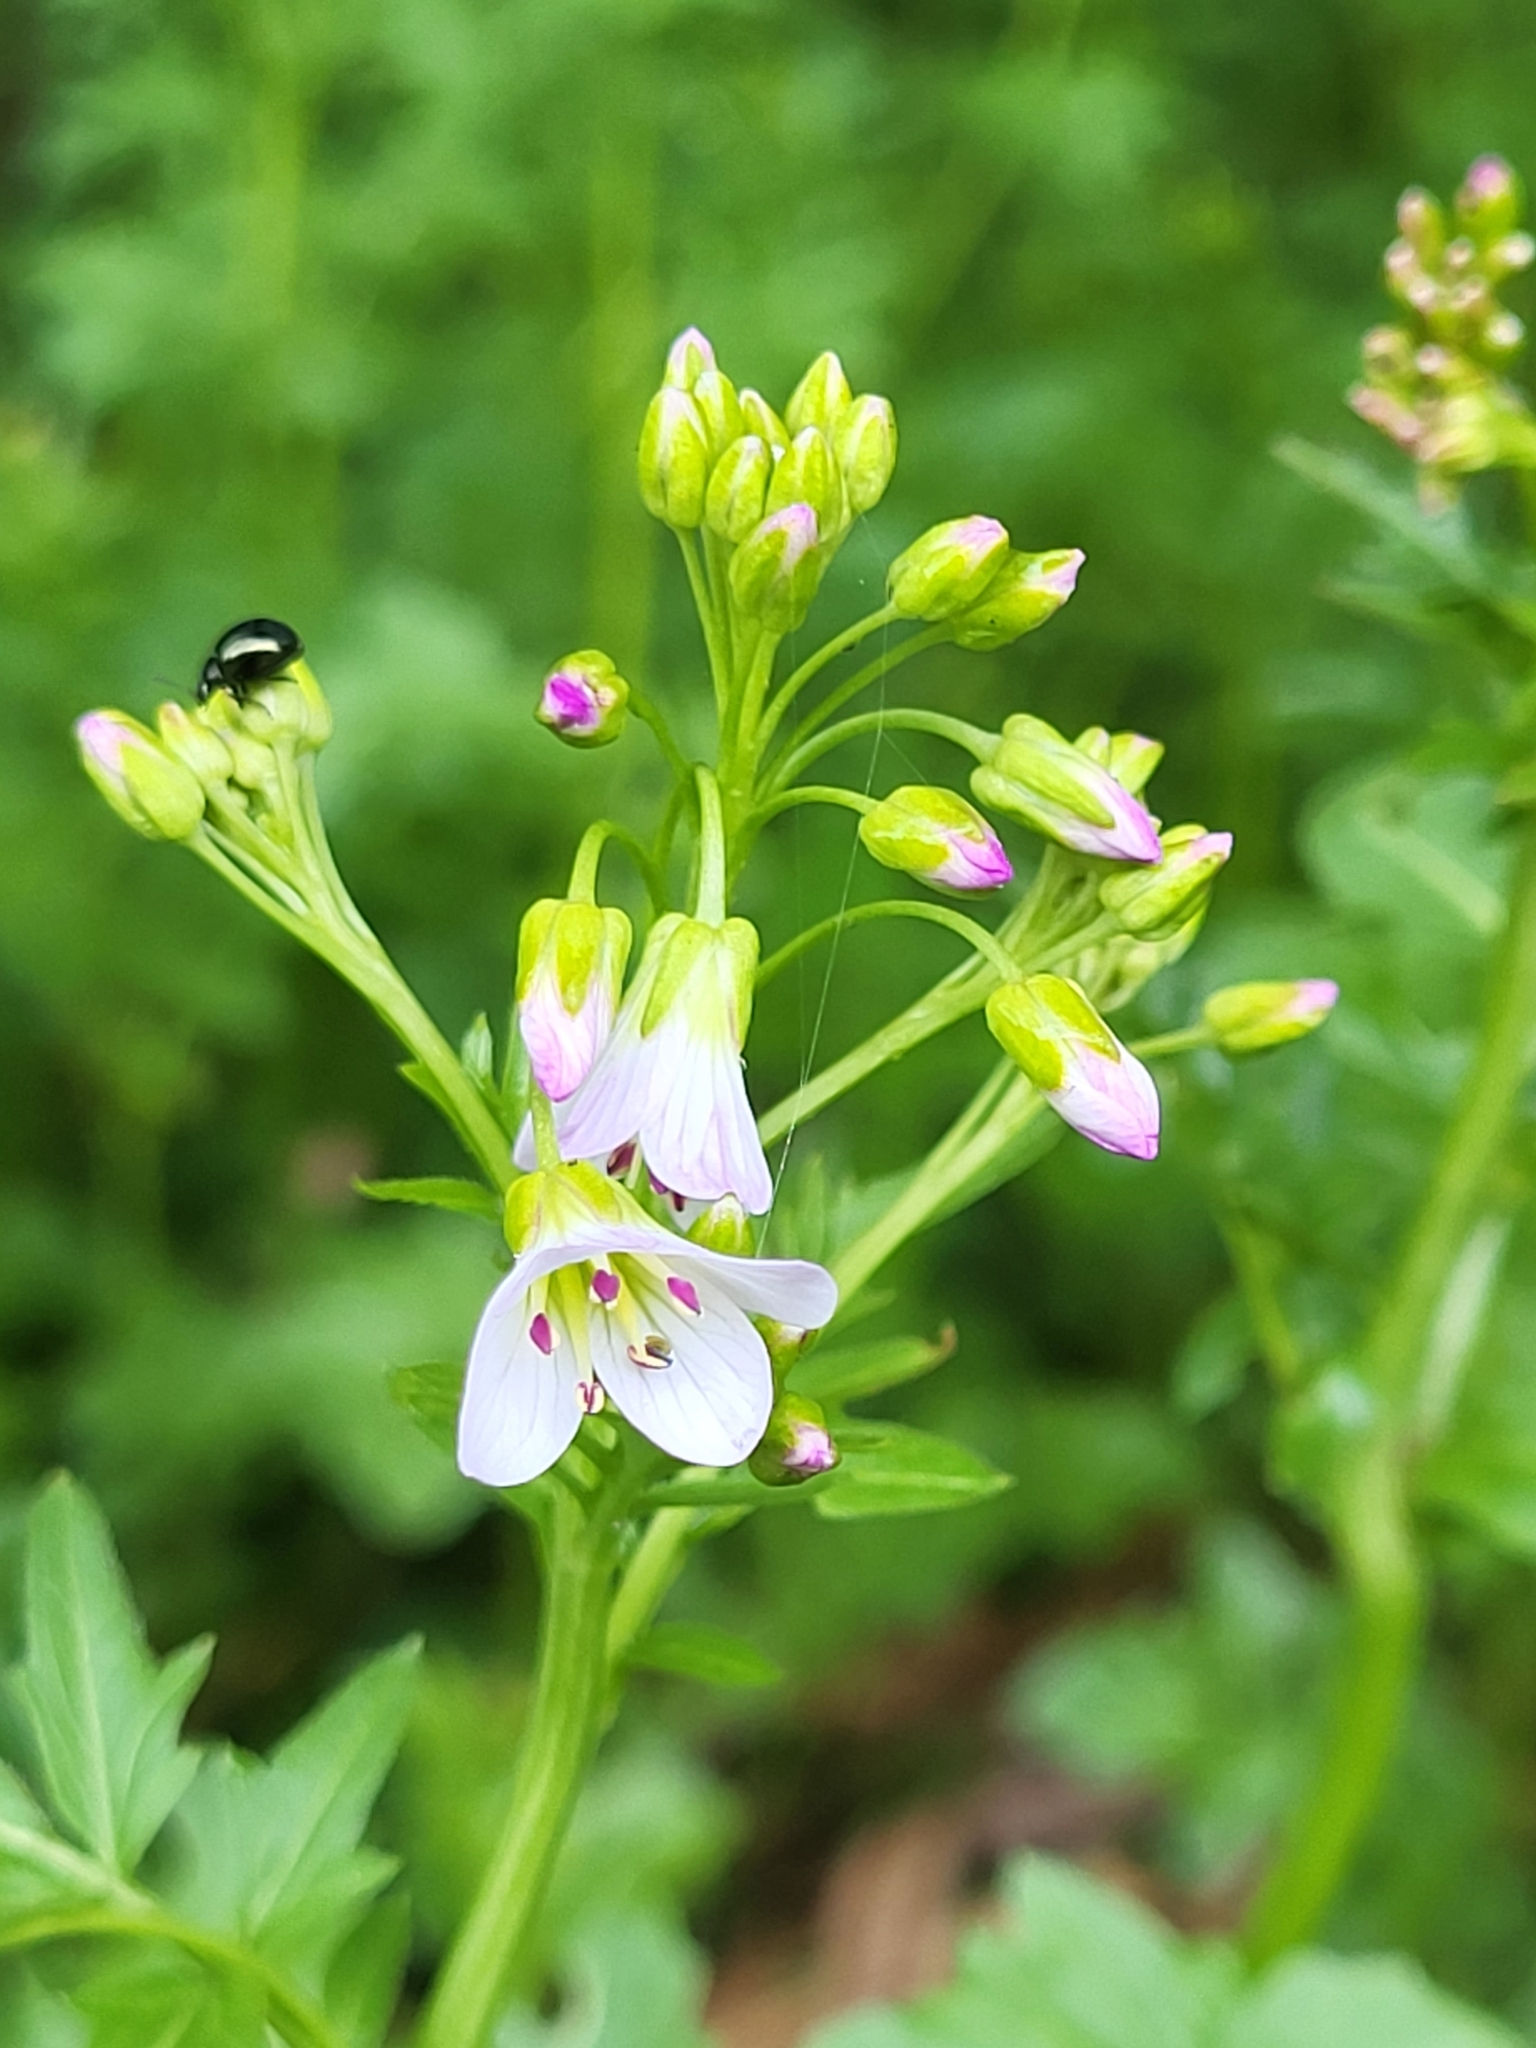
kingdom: Plantae
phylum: Tracheophyta
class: Magnoliopsida
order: Brassicales
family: Brassicaceae
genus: Cardamine
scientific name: Cardamine amara
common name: Large bitter-cress
